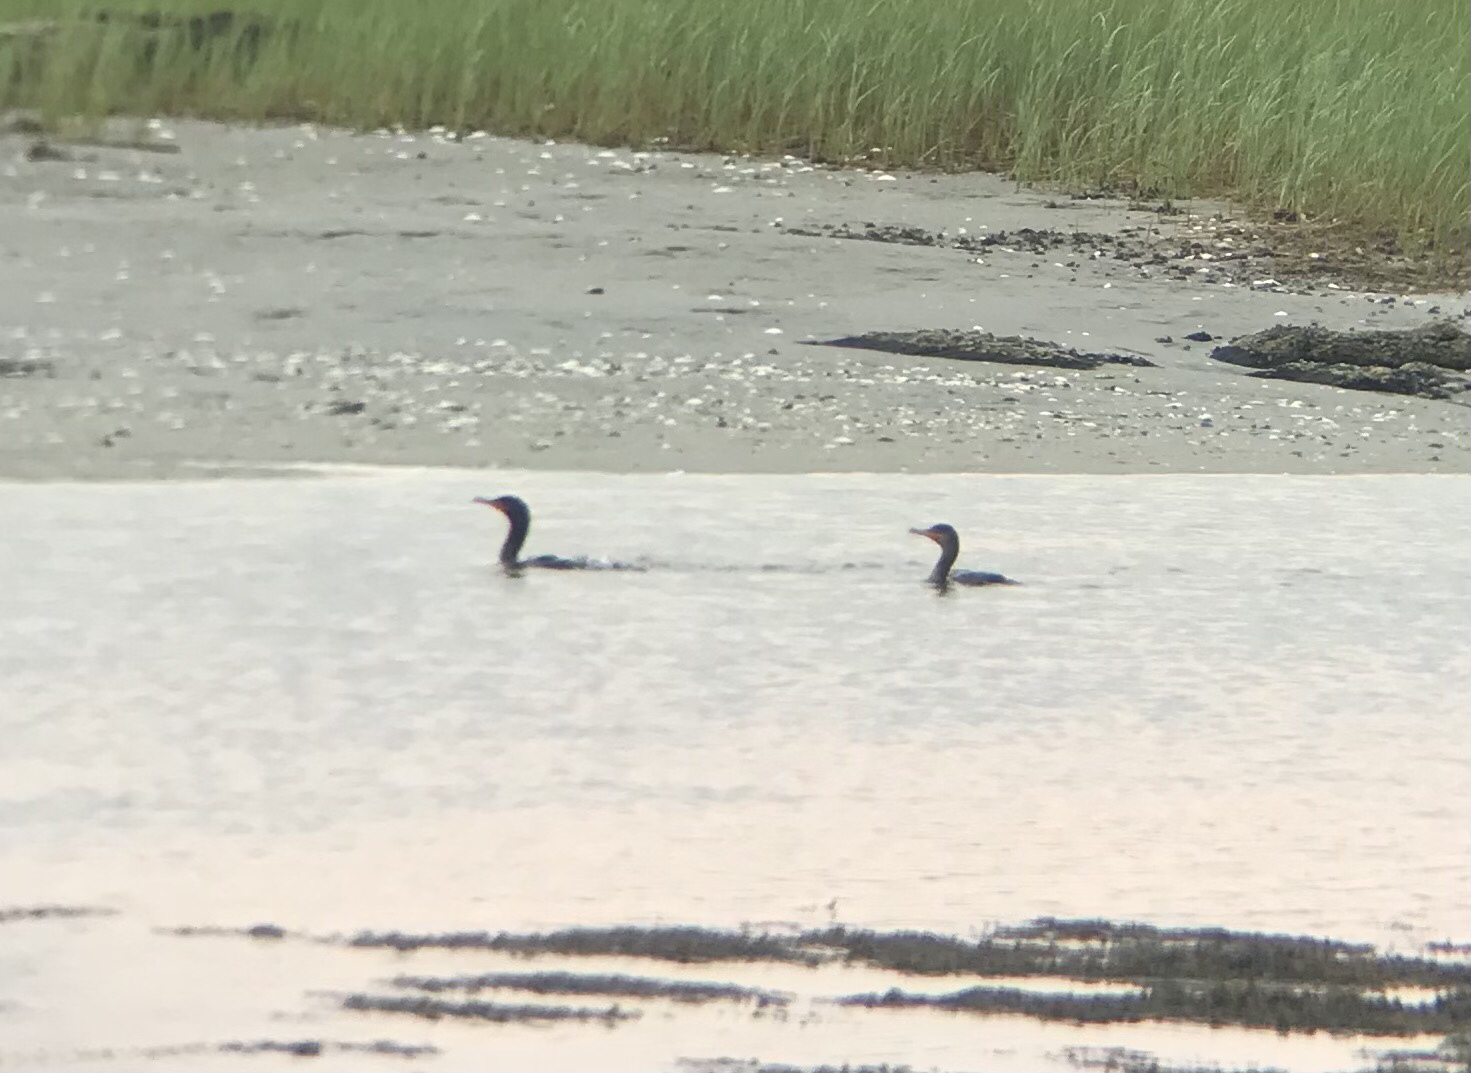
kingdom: Animalia
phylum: Chordata
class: Aves
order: Suliformes
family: Phalacrocoracidae
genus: Phalacrocorax
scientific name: Phalacrocorax auritus
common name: Double-crested cormorant
